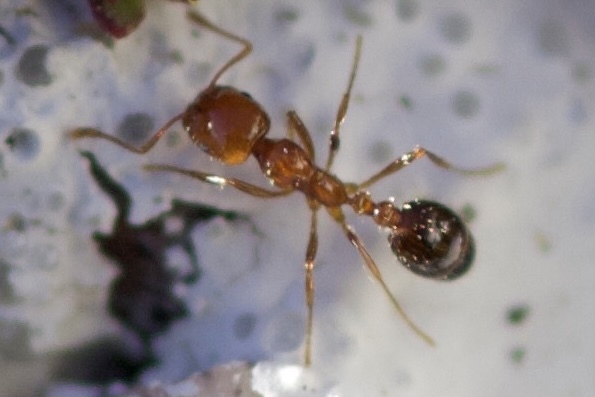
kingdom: Animalia
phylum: Arthropoda
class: Insecta
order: Hymenoptera
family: Formicidae
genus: Solenopsis
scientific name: Solenopsis xyloni
